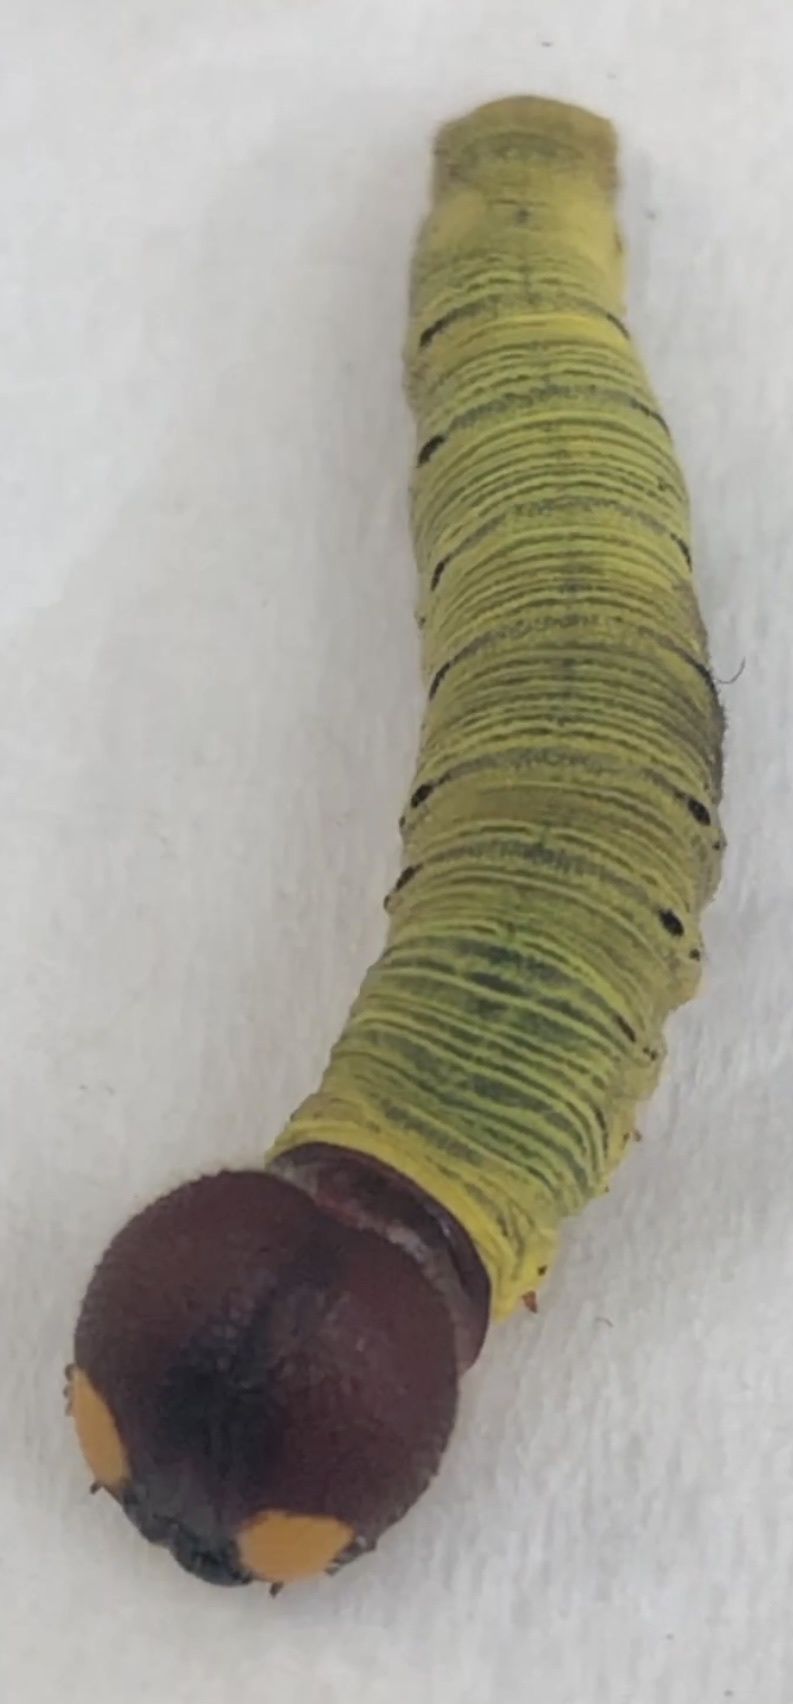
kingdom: Animalia
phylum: Arthropoda
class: Insecta
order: Lepidoptera
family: Hesperiidae
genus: Epargyreus
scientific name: Epargyreus clarus
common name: Silver-spotted skipper
